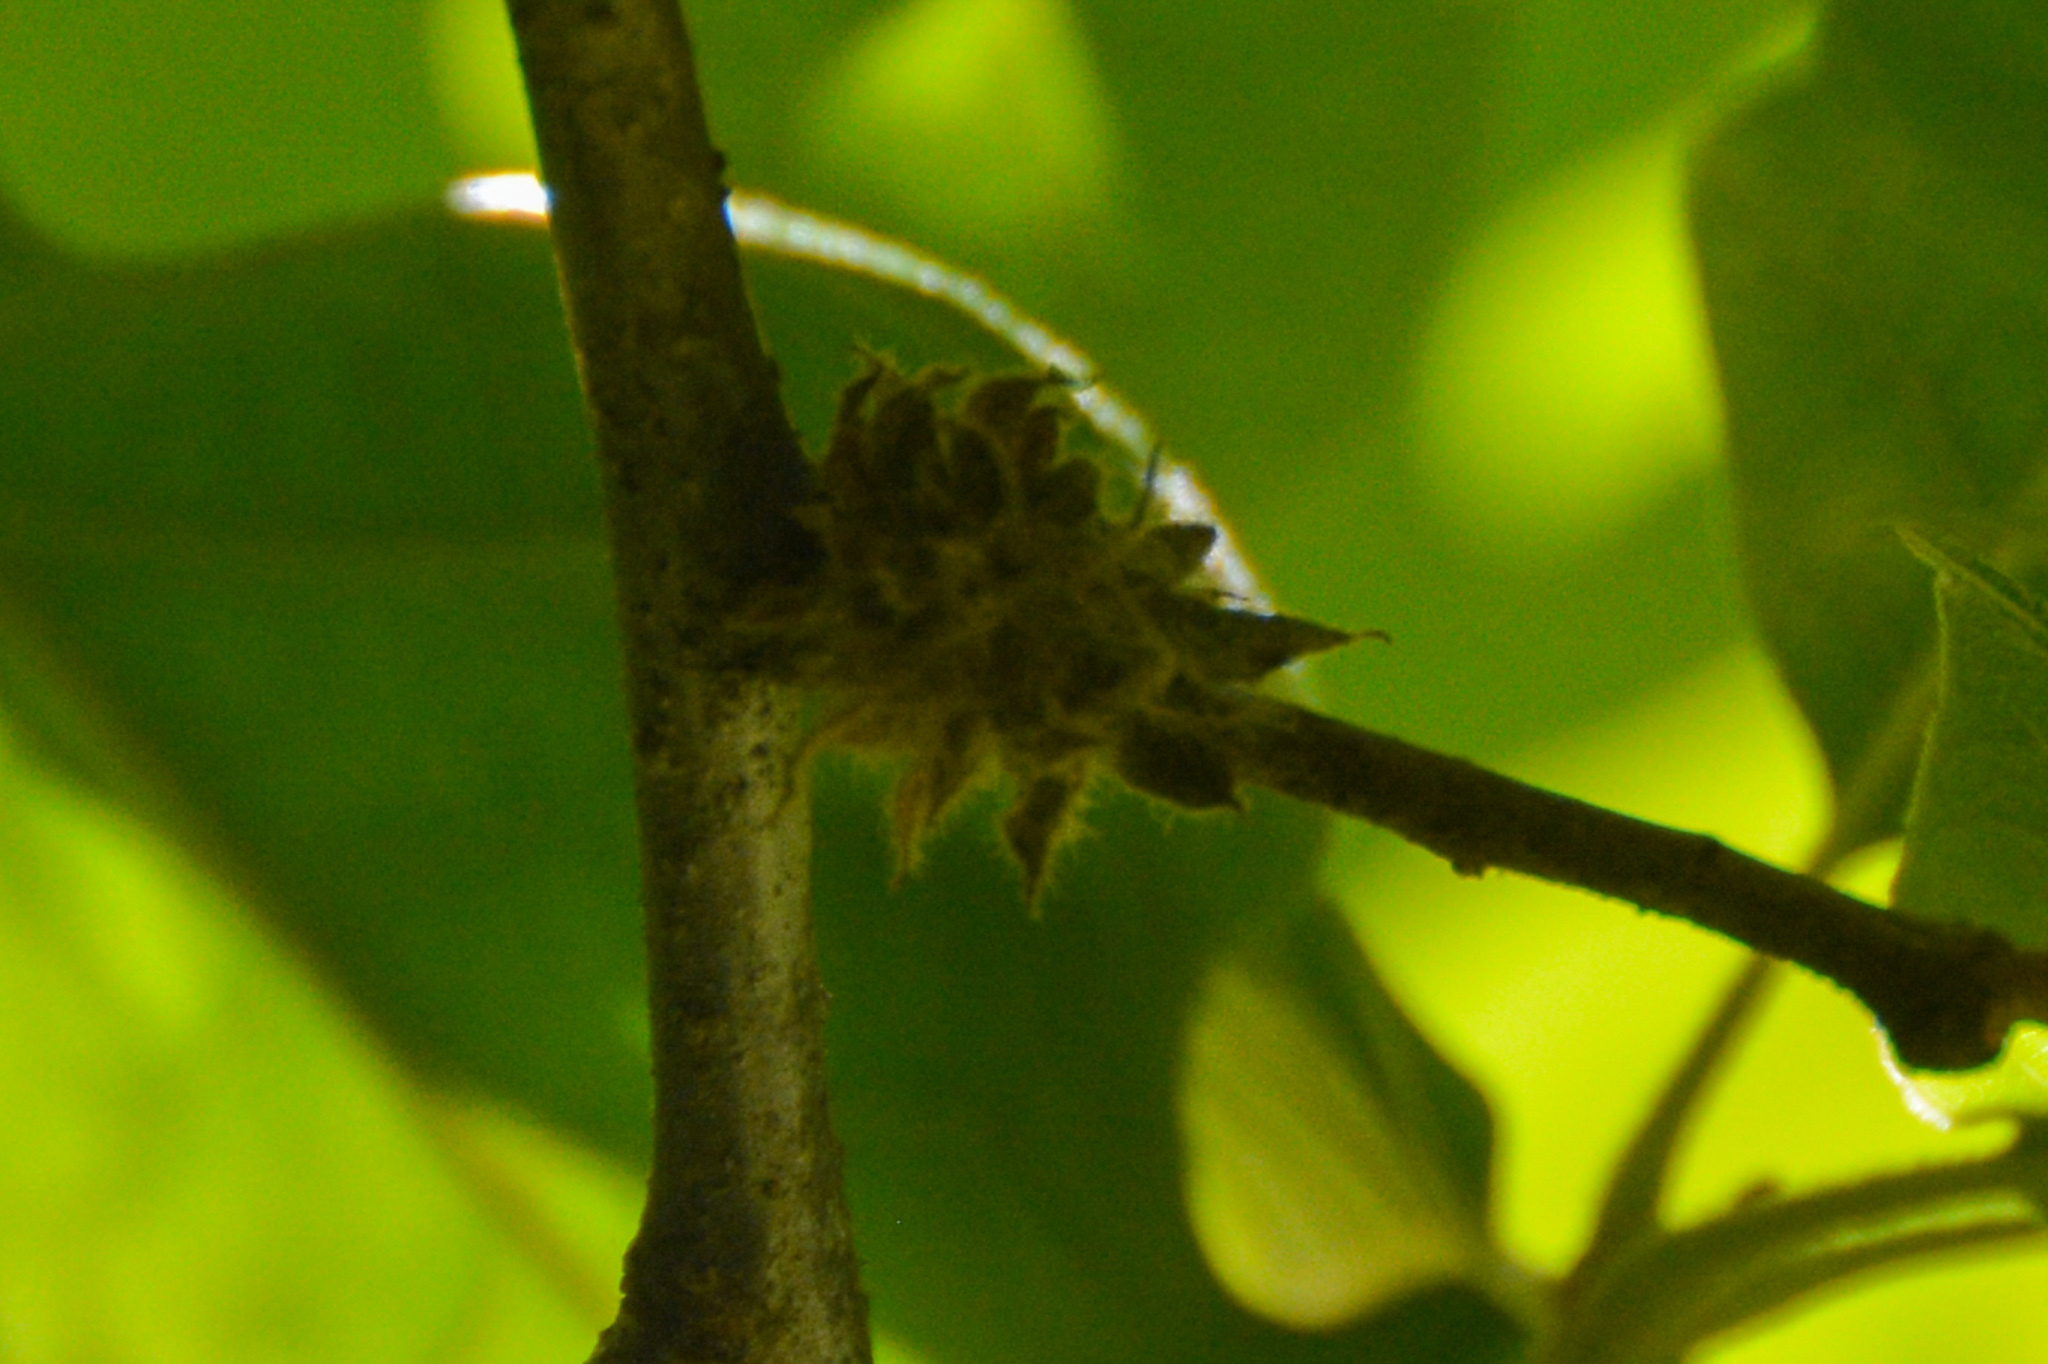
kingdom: Animalia
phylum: Arthropoda
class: Insecta
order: Hymenoptera
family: Cynipidae
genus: Dryocosmus
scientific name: Dryocosmus
